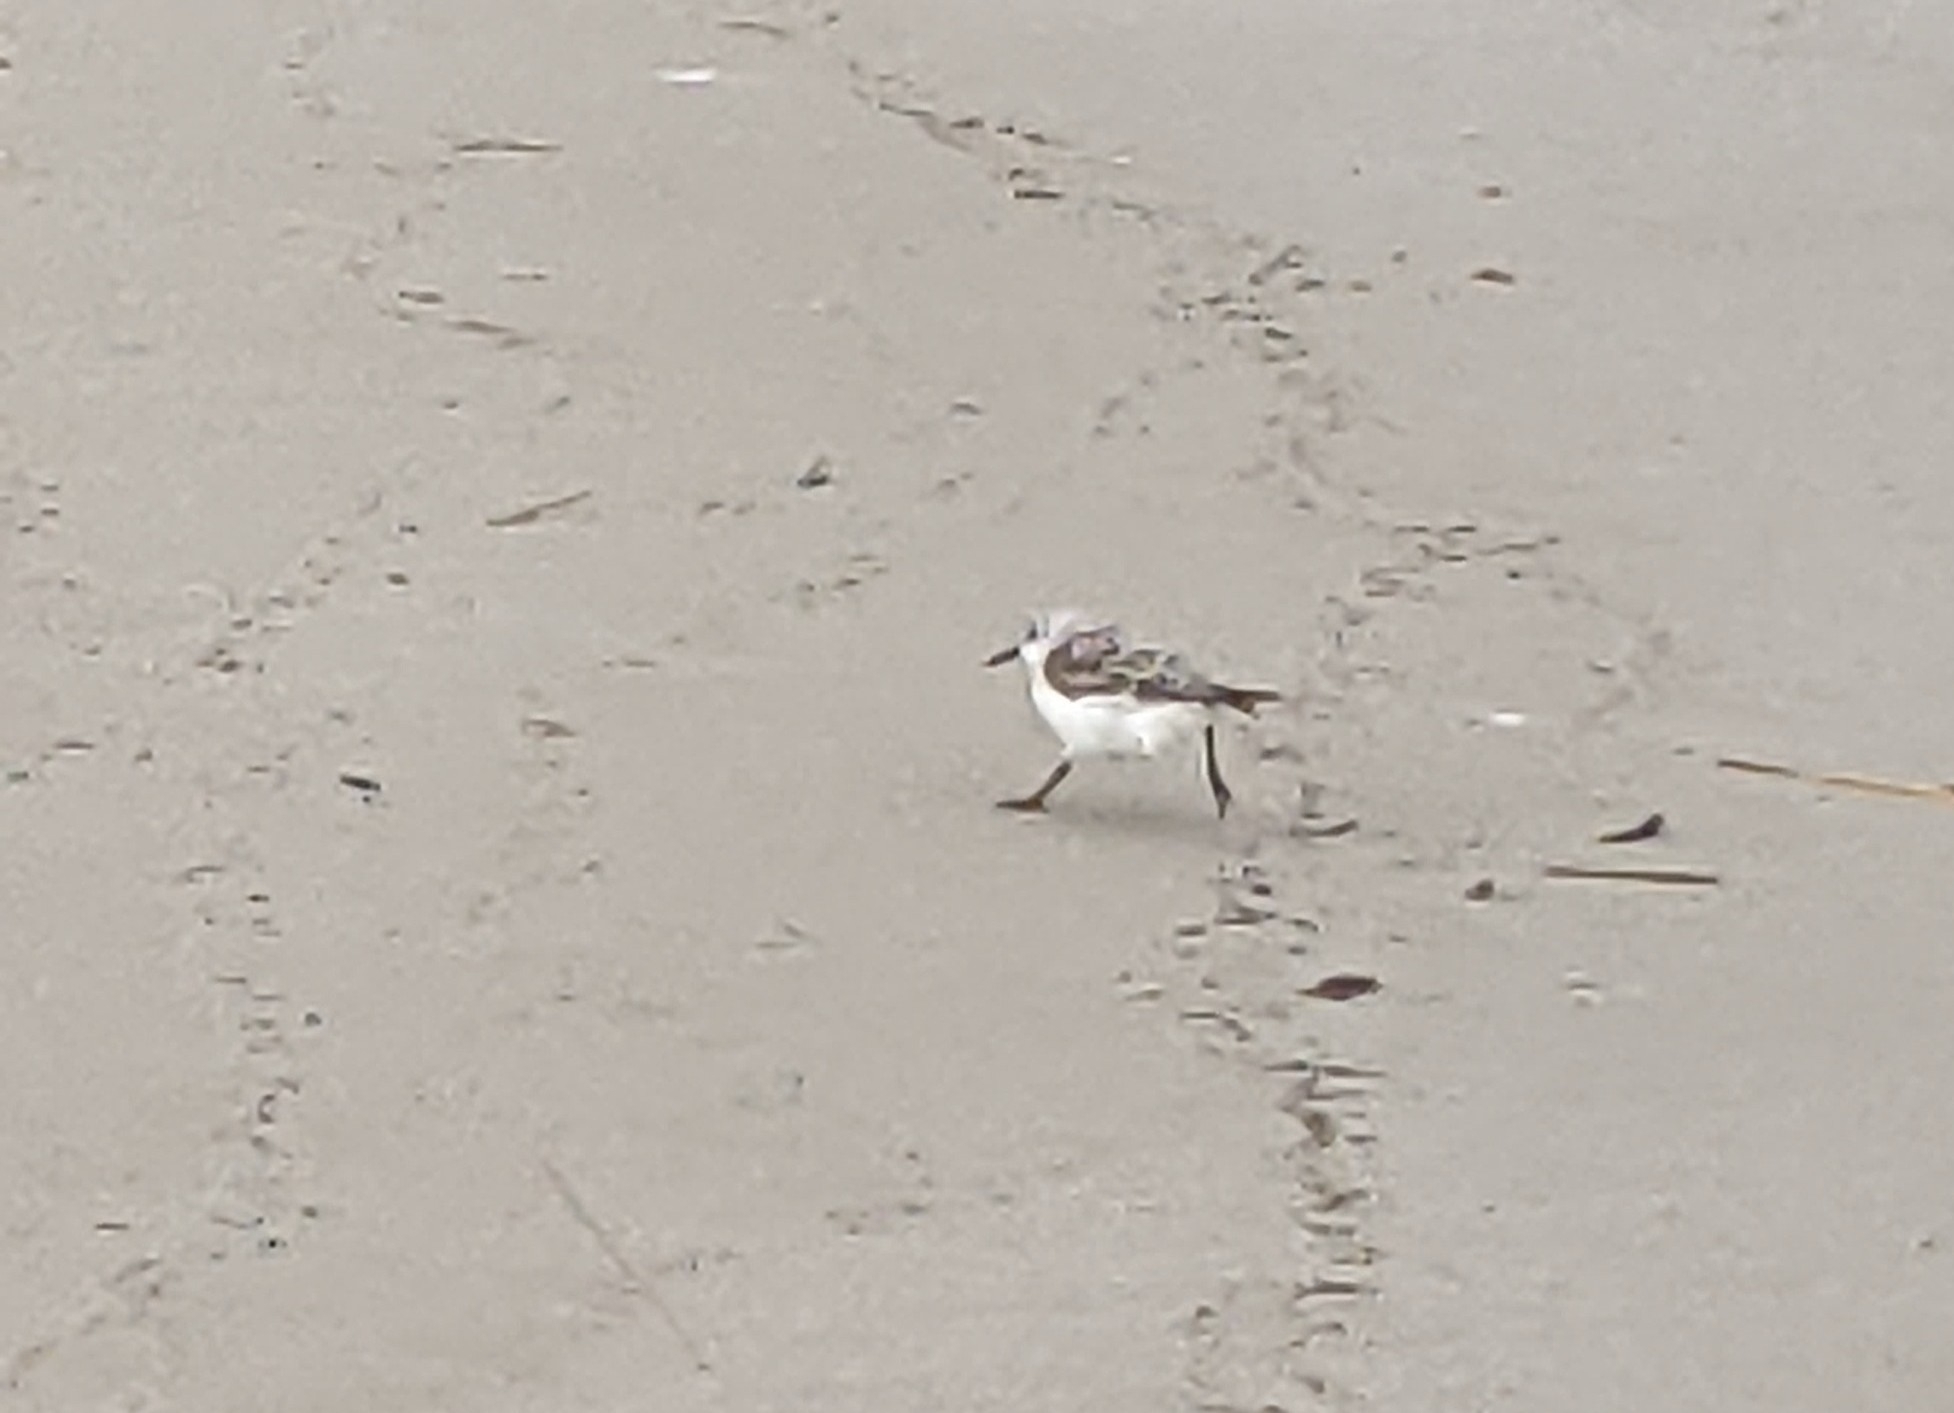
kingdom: Animalia
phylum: Chordata
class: Aves
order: Charadriiformes
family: Scolopacidae
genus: Calidris
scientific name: Calidris alba
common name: Sanderling
